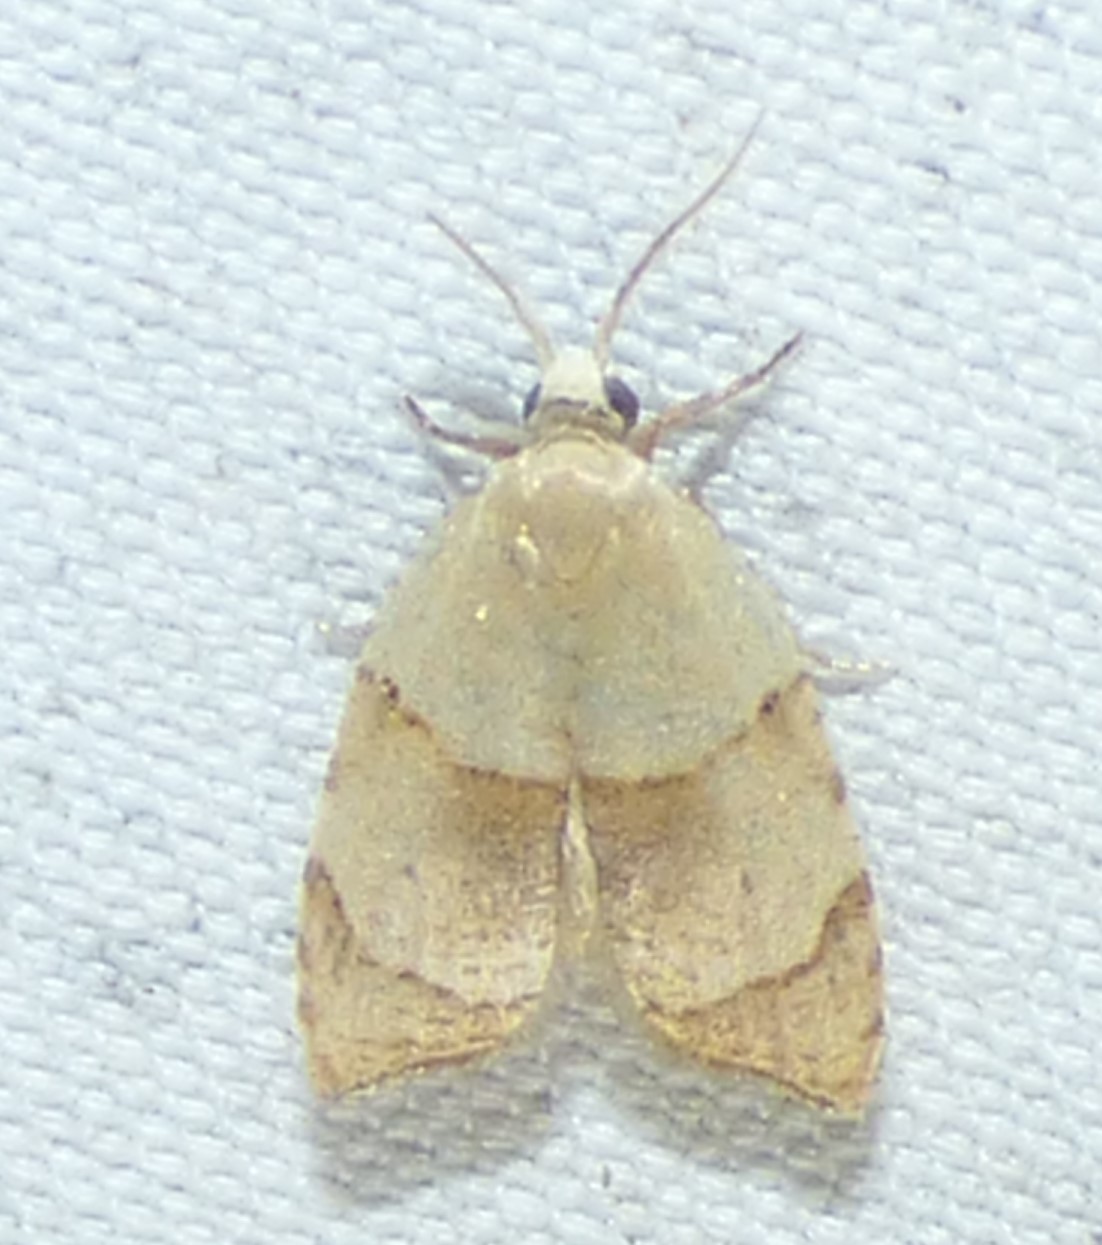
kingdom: Animalia
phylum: Arthropoda
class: Insecta
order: Lepidoptera
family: Tortricidae
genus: Coelostathma
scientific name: Coelostathma discopunctana
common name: Batman moth
